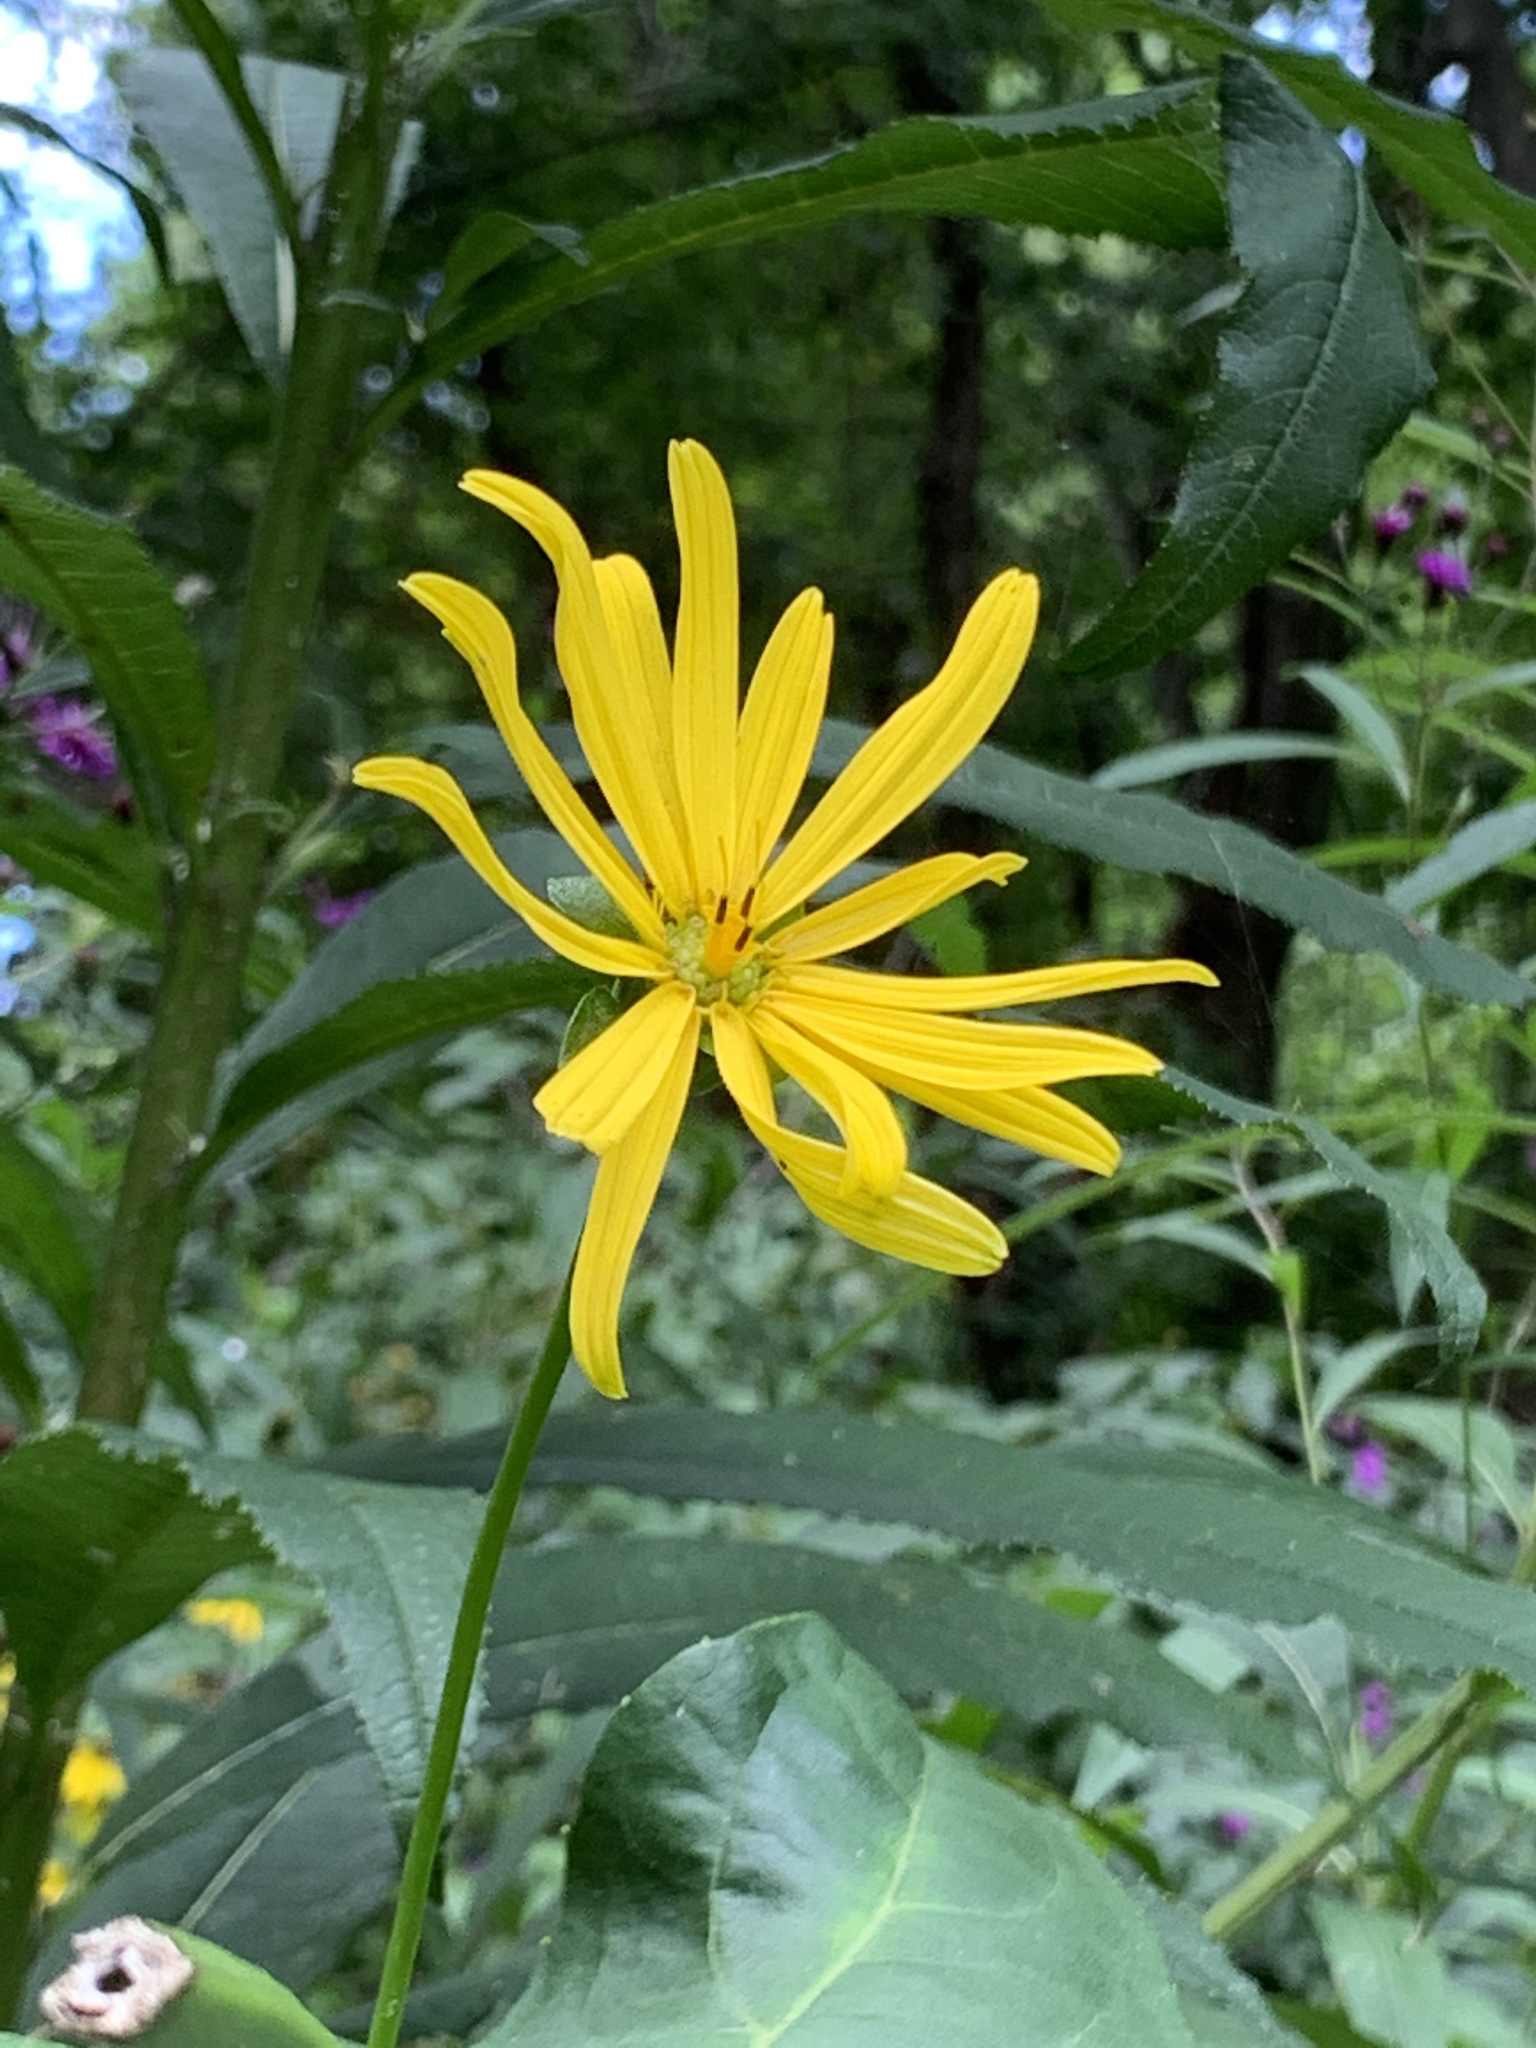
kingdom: Plantae
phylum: Tracheophyta
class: Magnoliopsida
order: Asterales
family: Asteraceae
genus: Silphium
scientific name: Silphium perfoliatum
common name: Cup-plant
